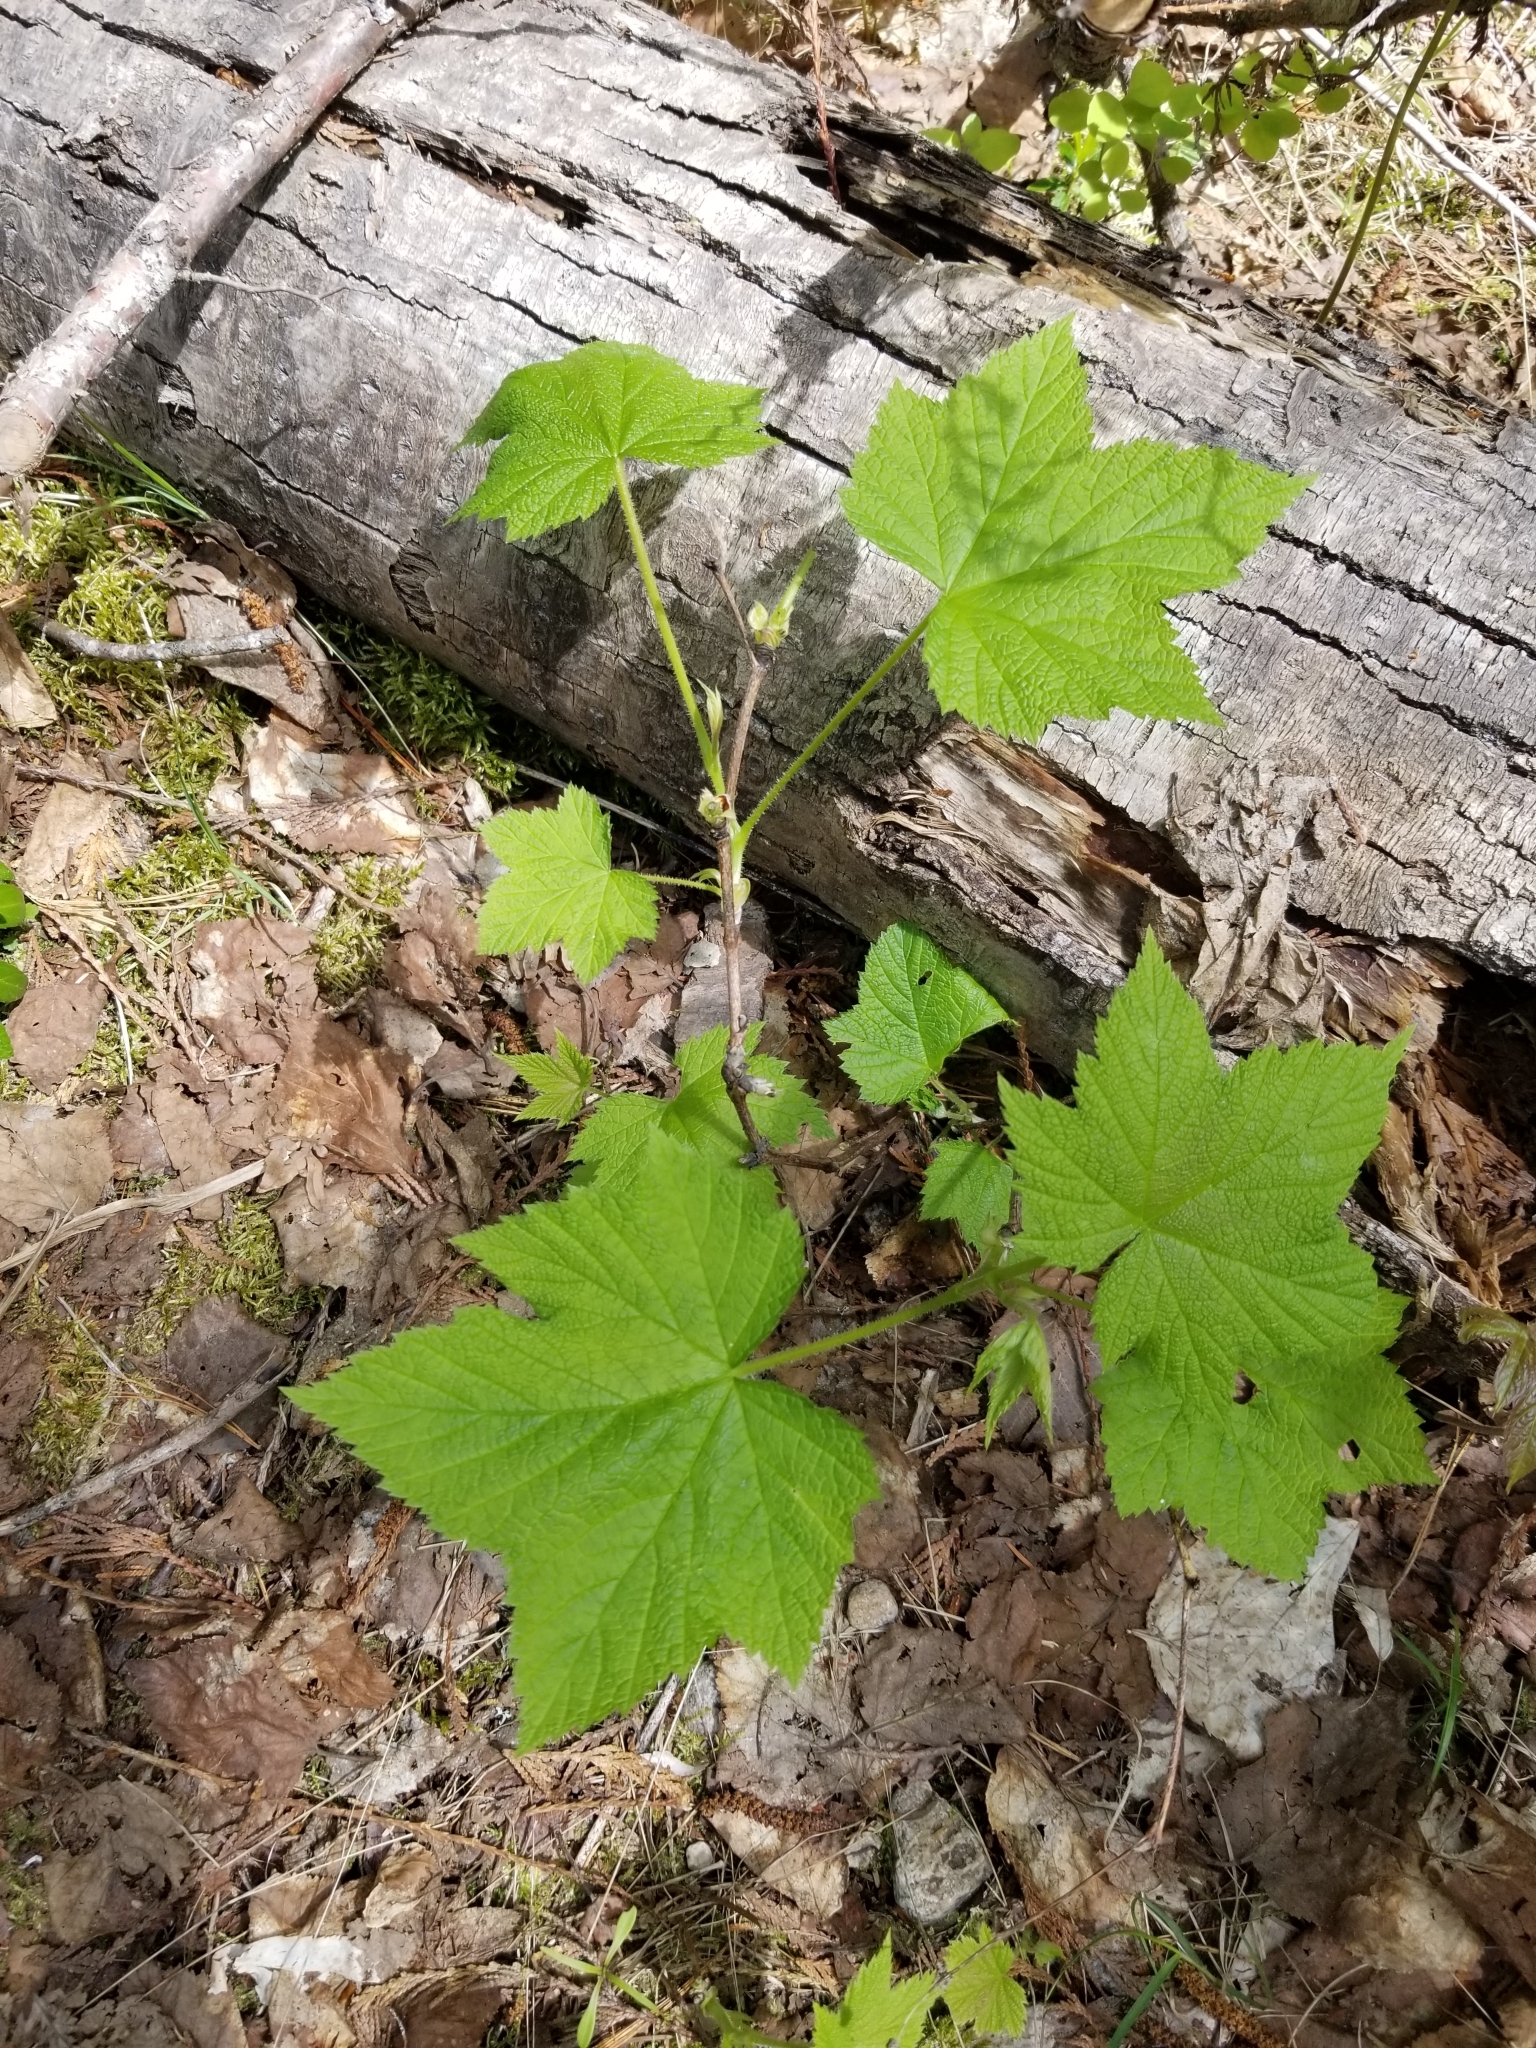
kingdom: Plantae
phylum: Tracheophyta
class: Magnoliopsida
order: Rosales
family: Rosaceae
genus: Rubus
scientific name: Rubus parviflorus
